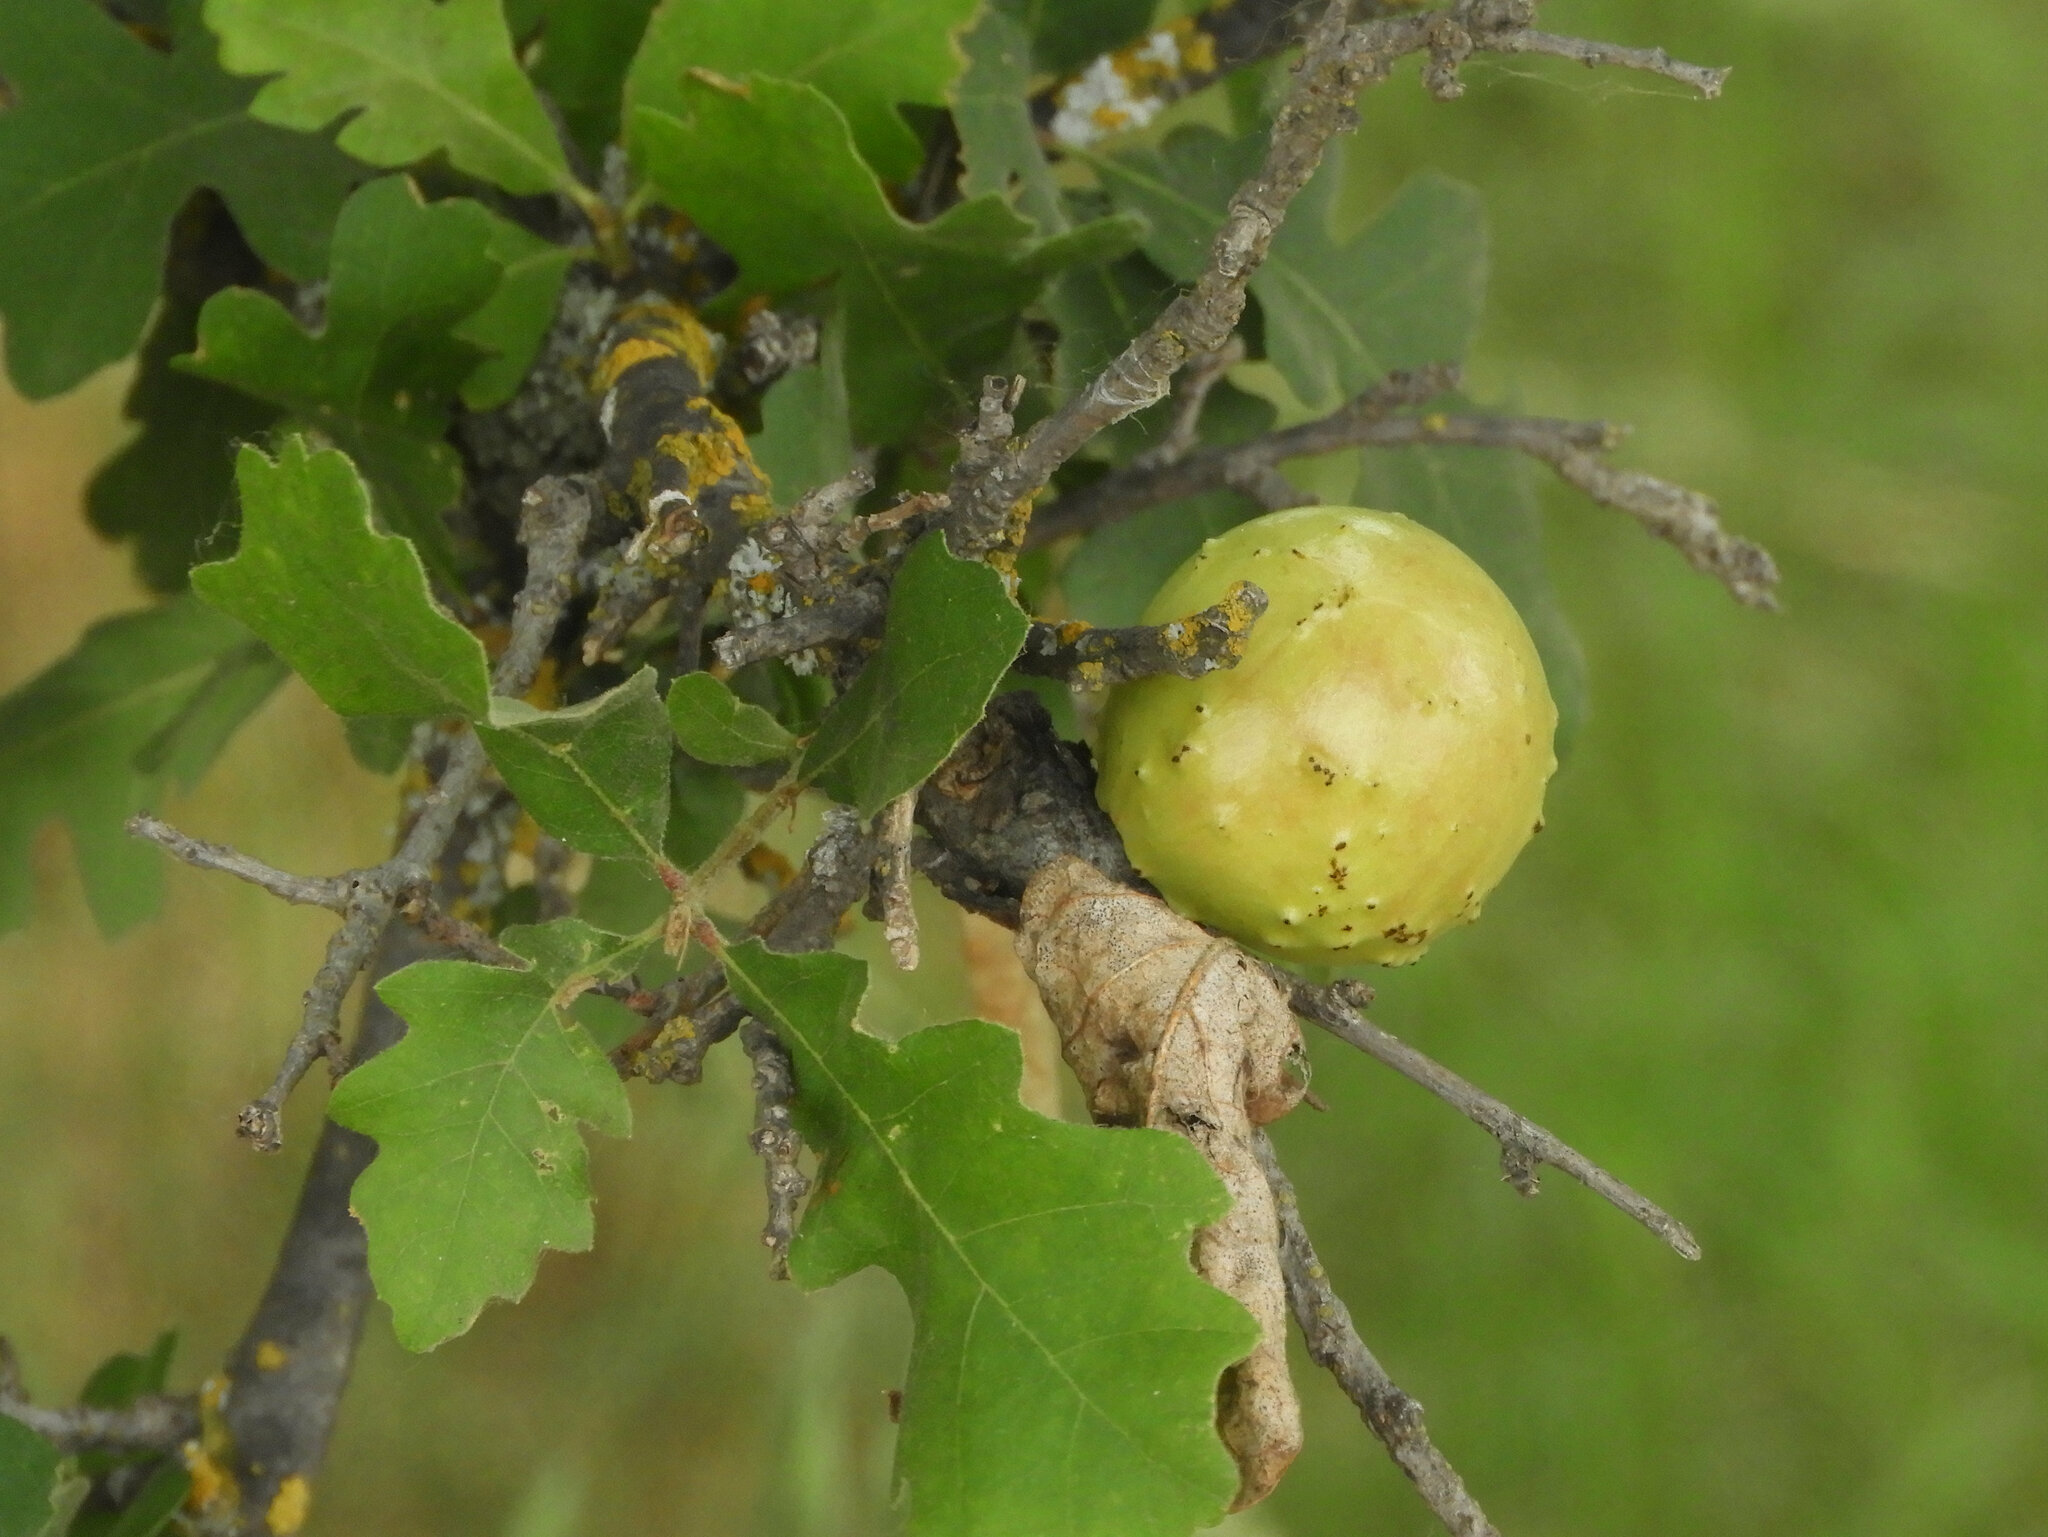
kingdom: Animalia
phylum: Arthropoda
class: Insecta
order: Hymenoptera
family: Cynipidae
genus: Andricus
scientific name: Andricus quercuscalifornicus
